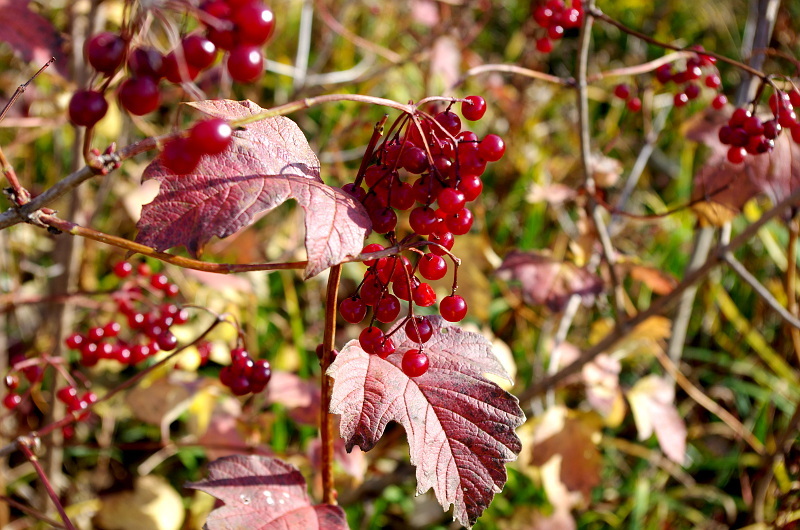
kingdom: Plantae
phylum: Tracheophyta
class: Magnoliopsida
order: Dipsacales
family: Viburnaceae
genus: Viburnum
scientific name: Viburnum opulus
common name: Guelder-rose
